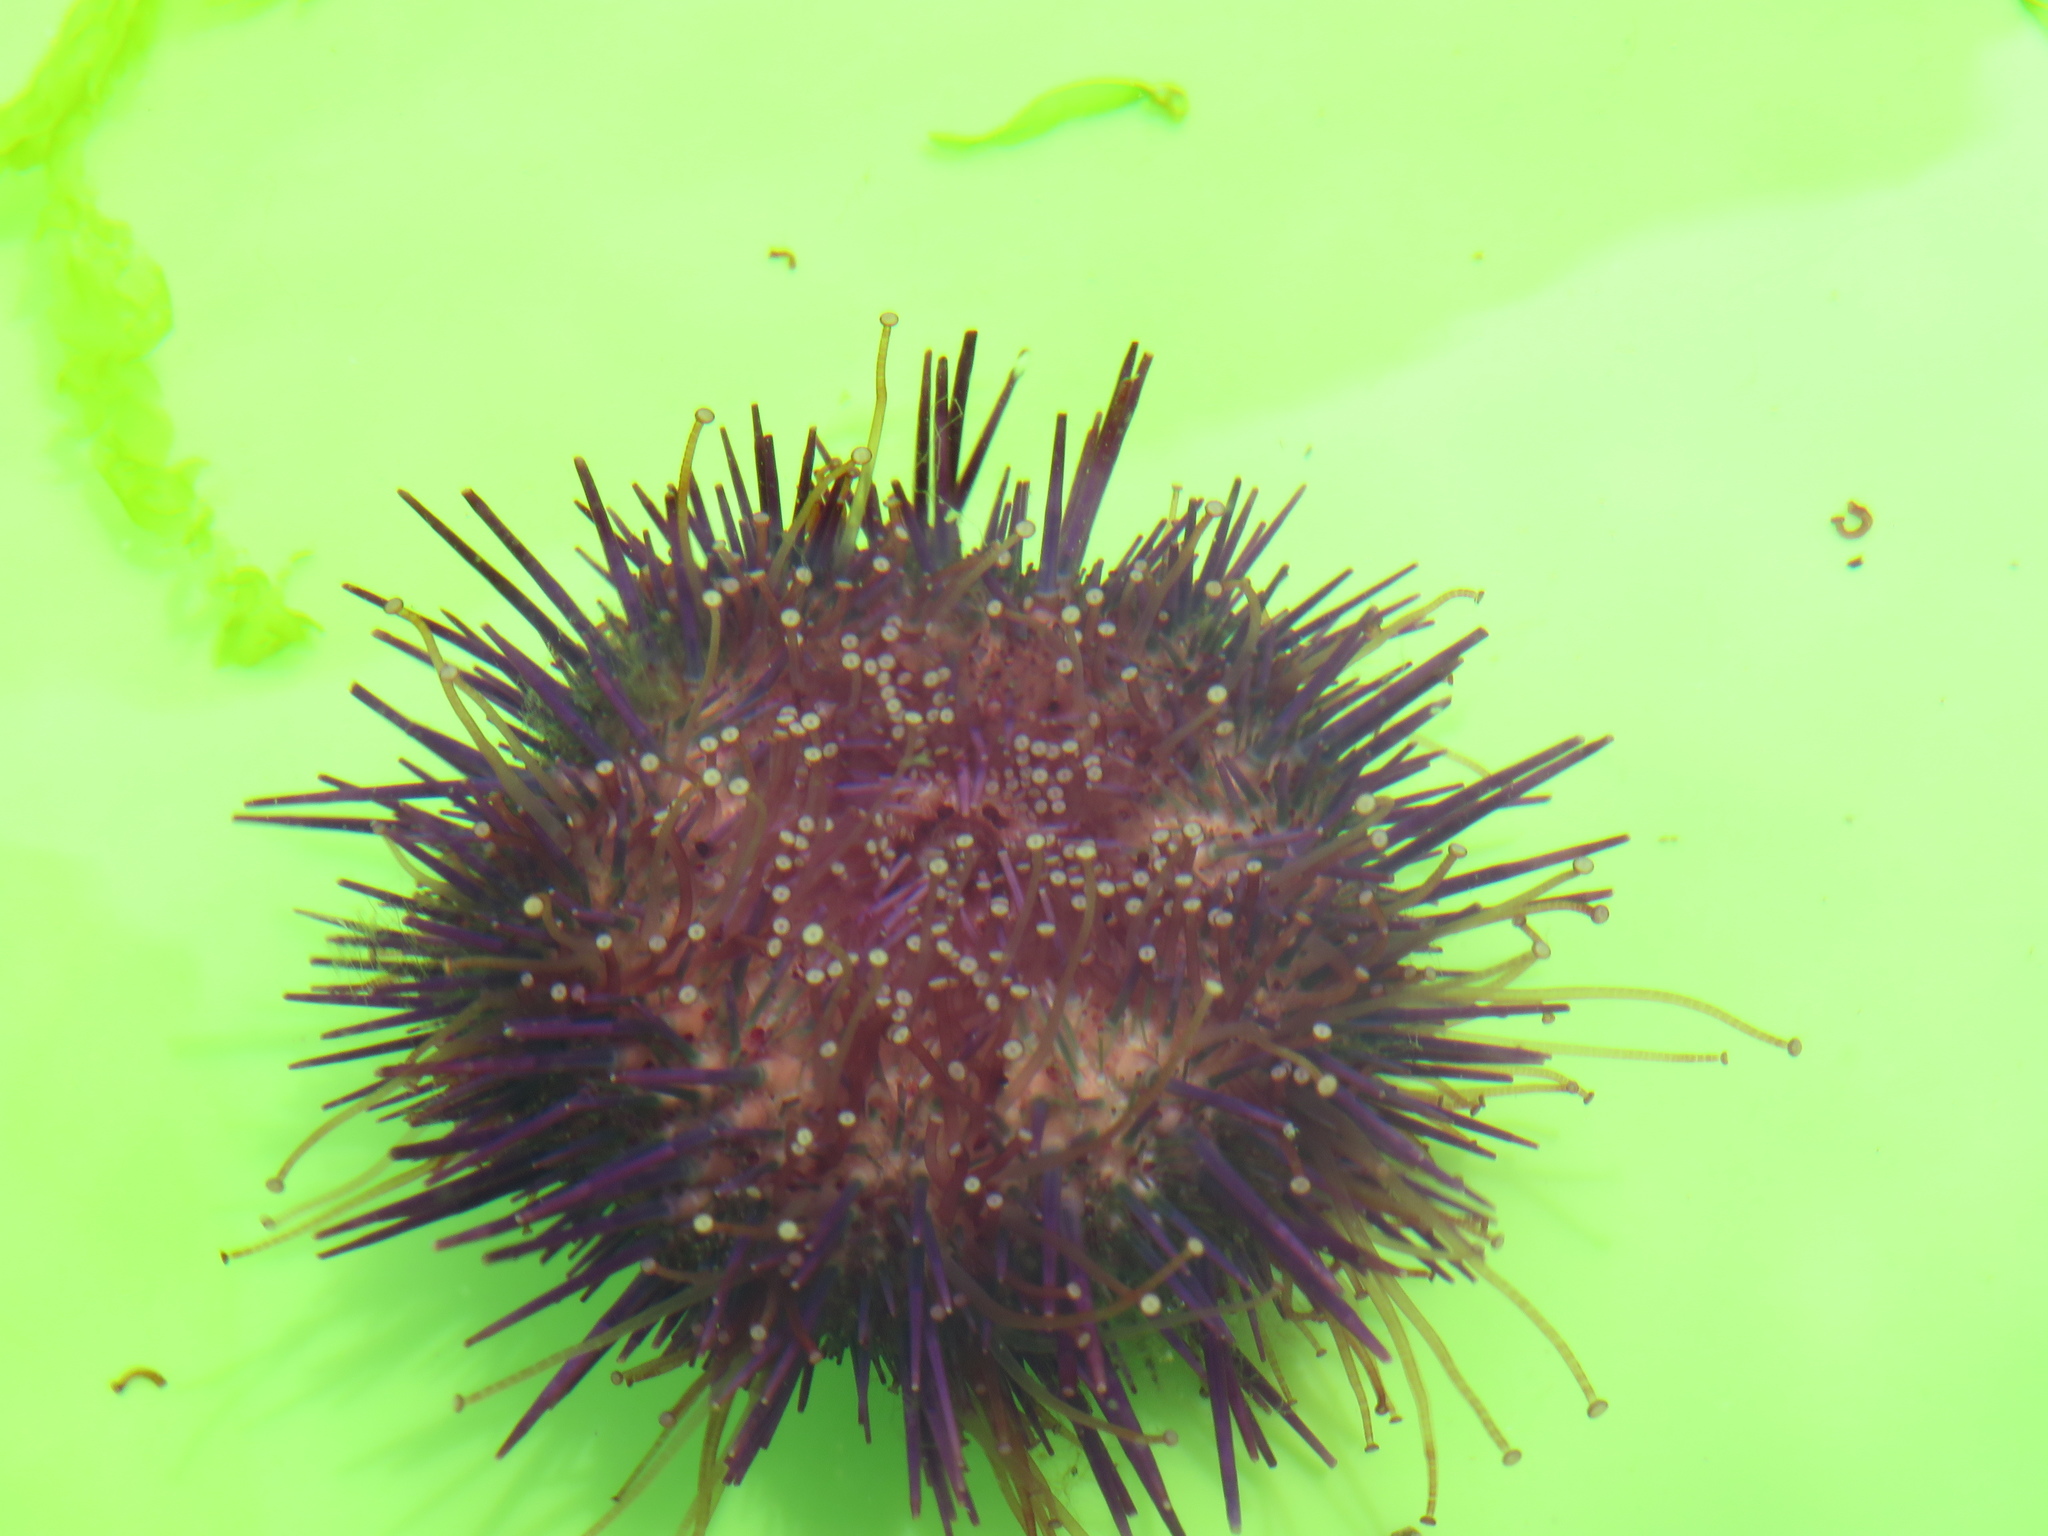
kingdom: Animalia
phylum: Echinodermata
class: Echinoidea
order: Camarodonta
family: Parechinidae
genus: Parechinus
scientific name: Parechinus angulosus
